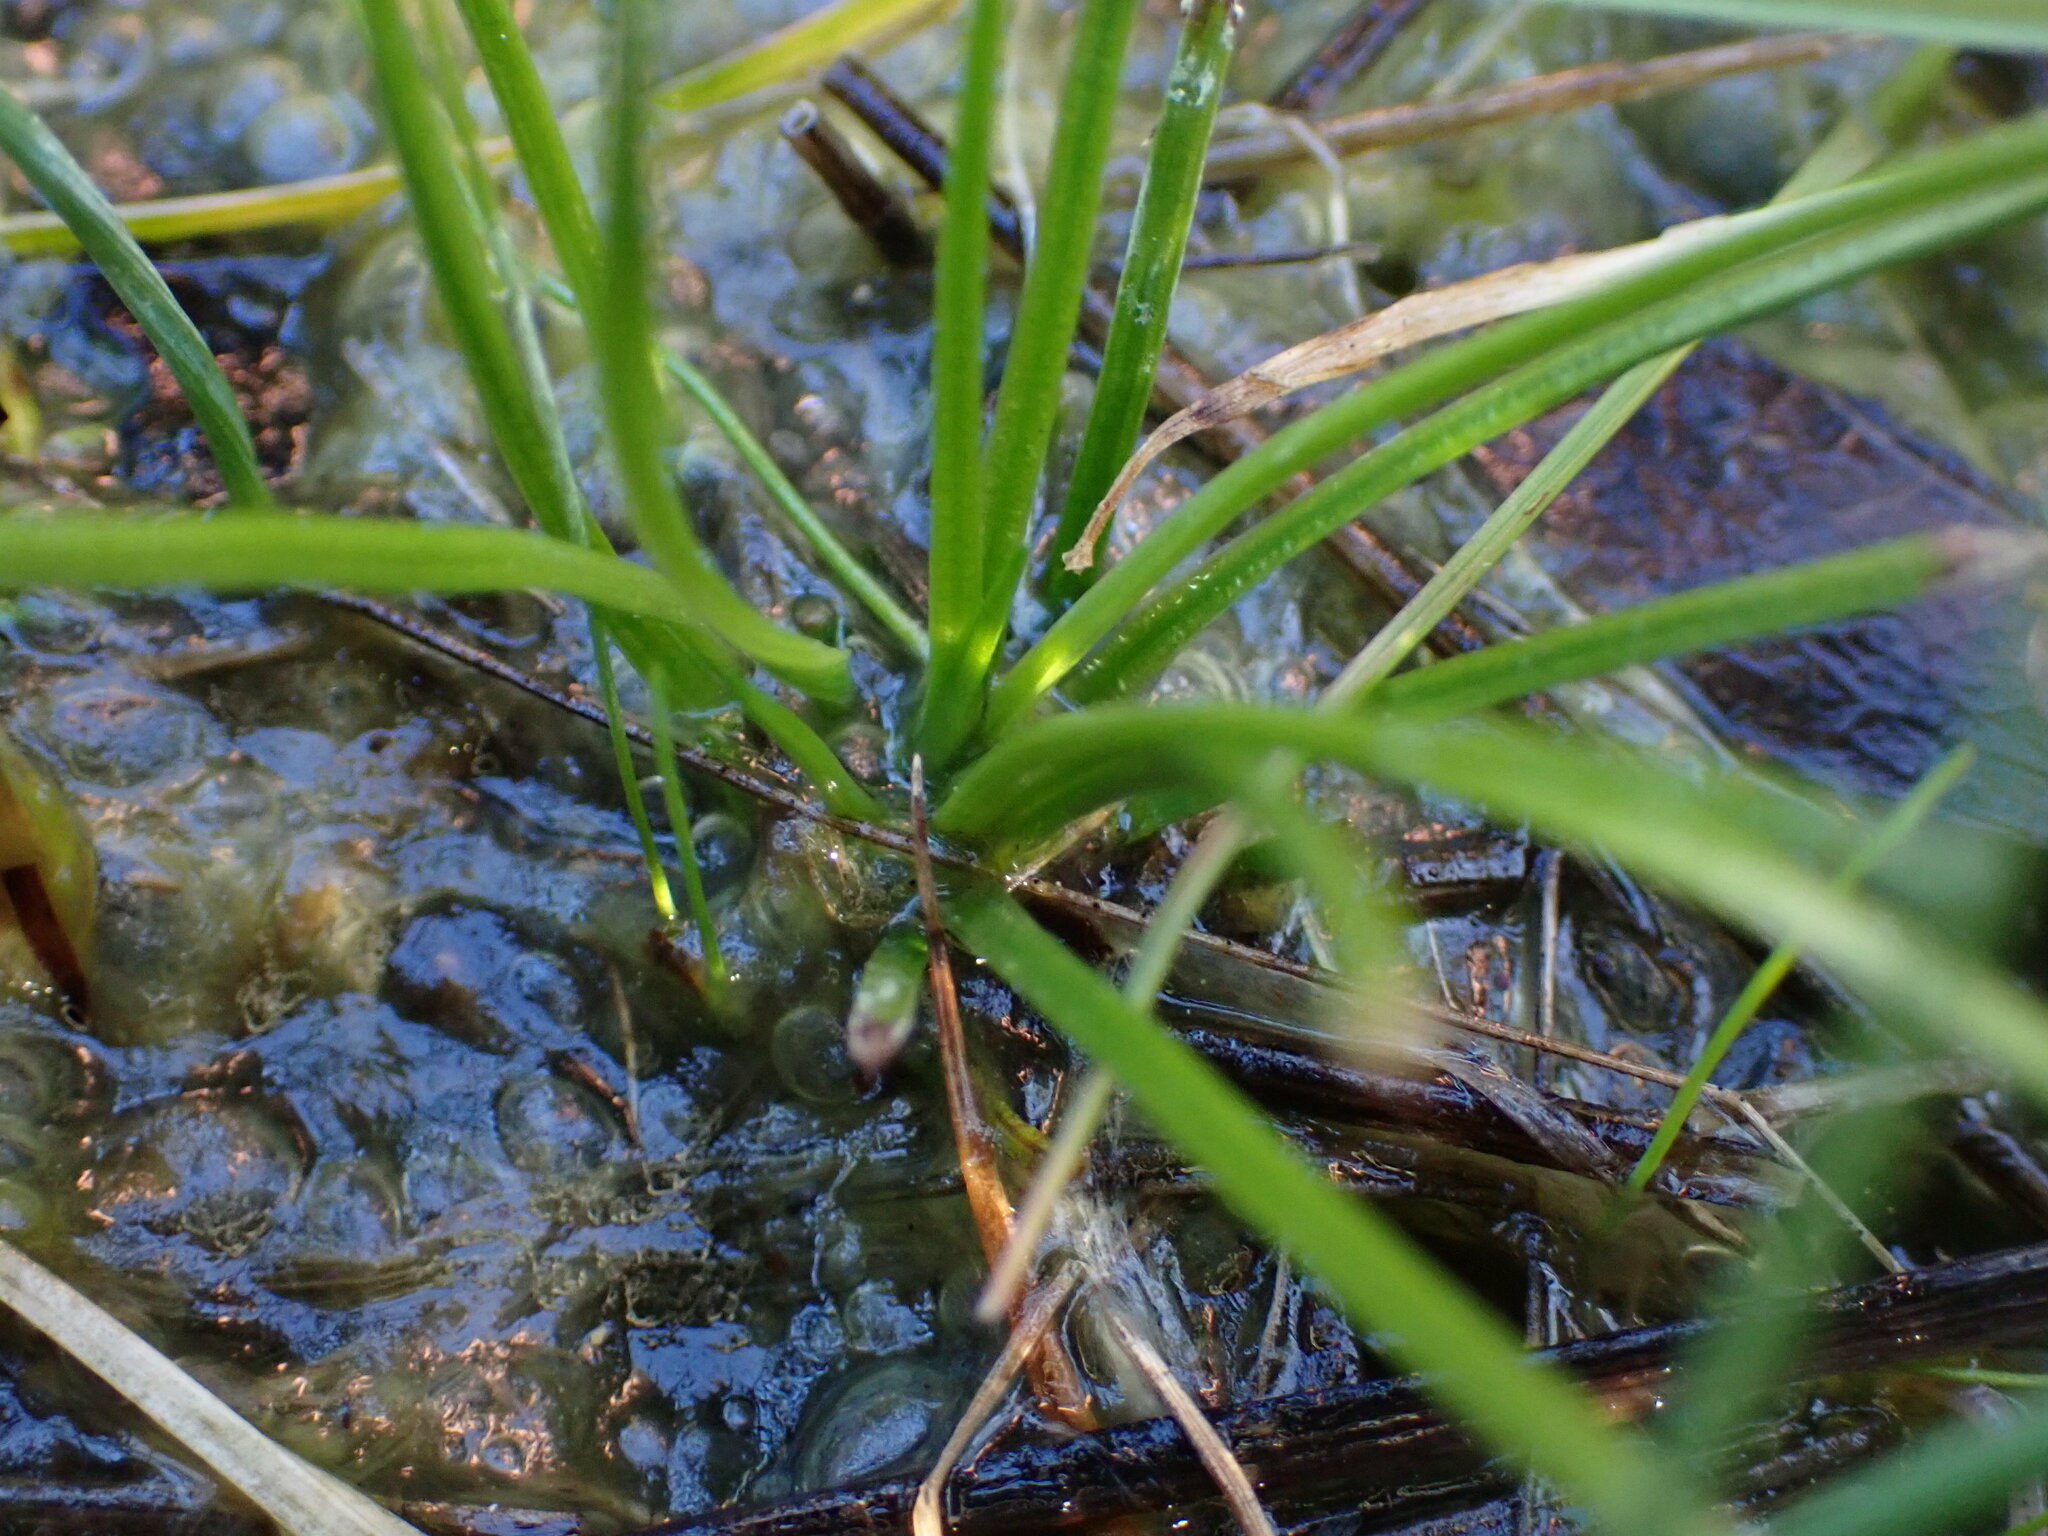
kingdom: Plantae
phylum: Tracheophyta
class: Lycopodiopsida
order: Isoetales
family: Isoetaceae
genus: Isoetes
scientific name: Isoetes nuttallii
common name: Nuttall's quillwort
